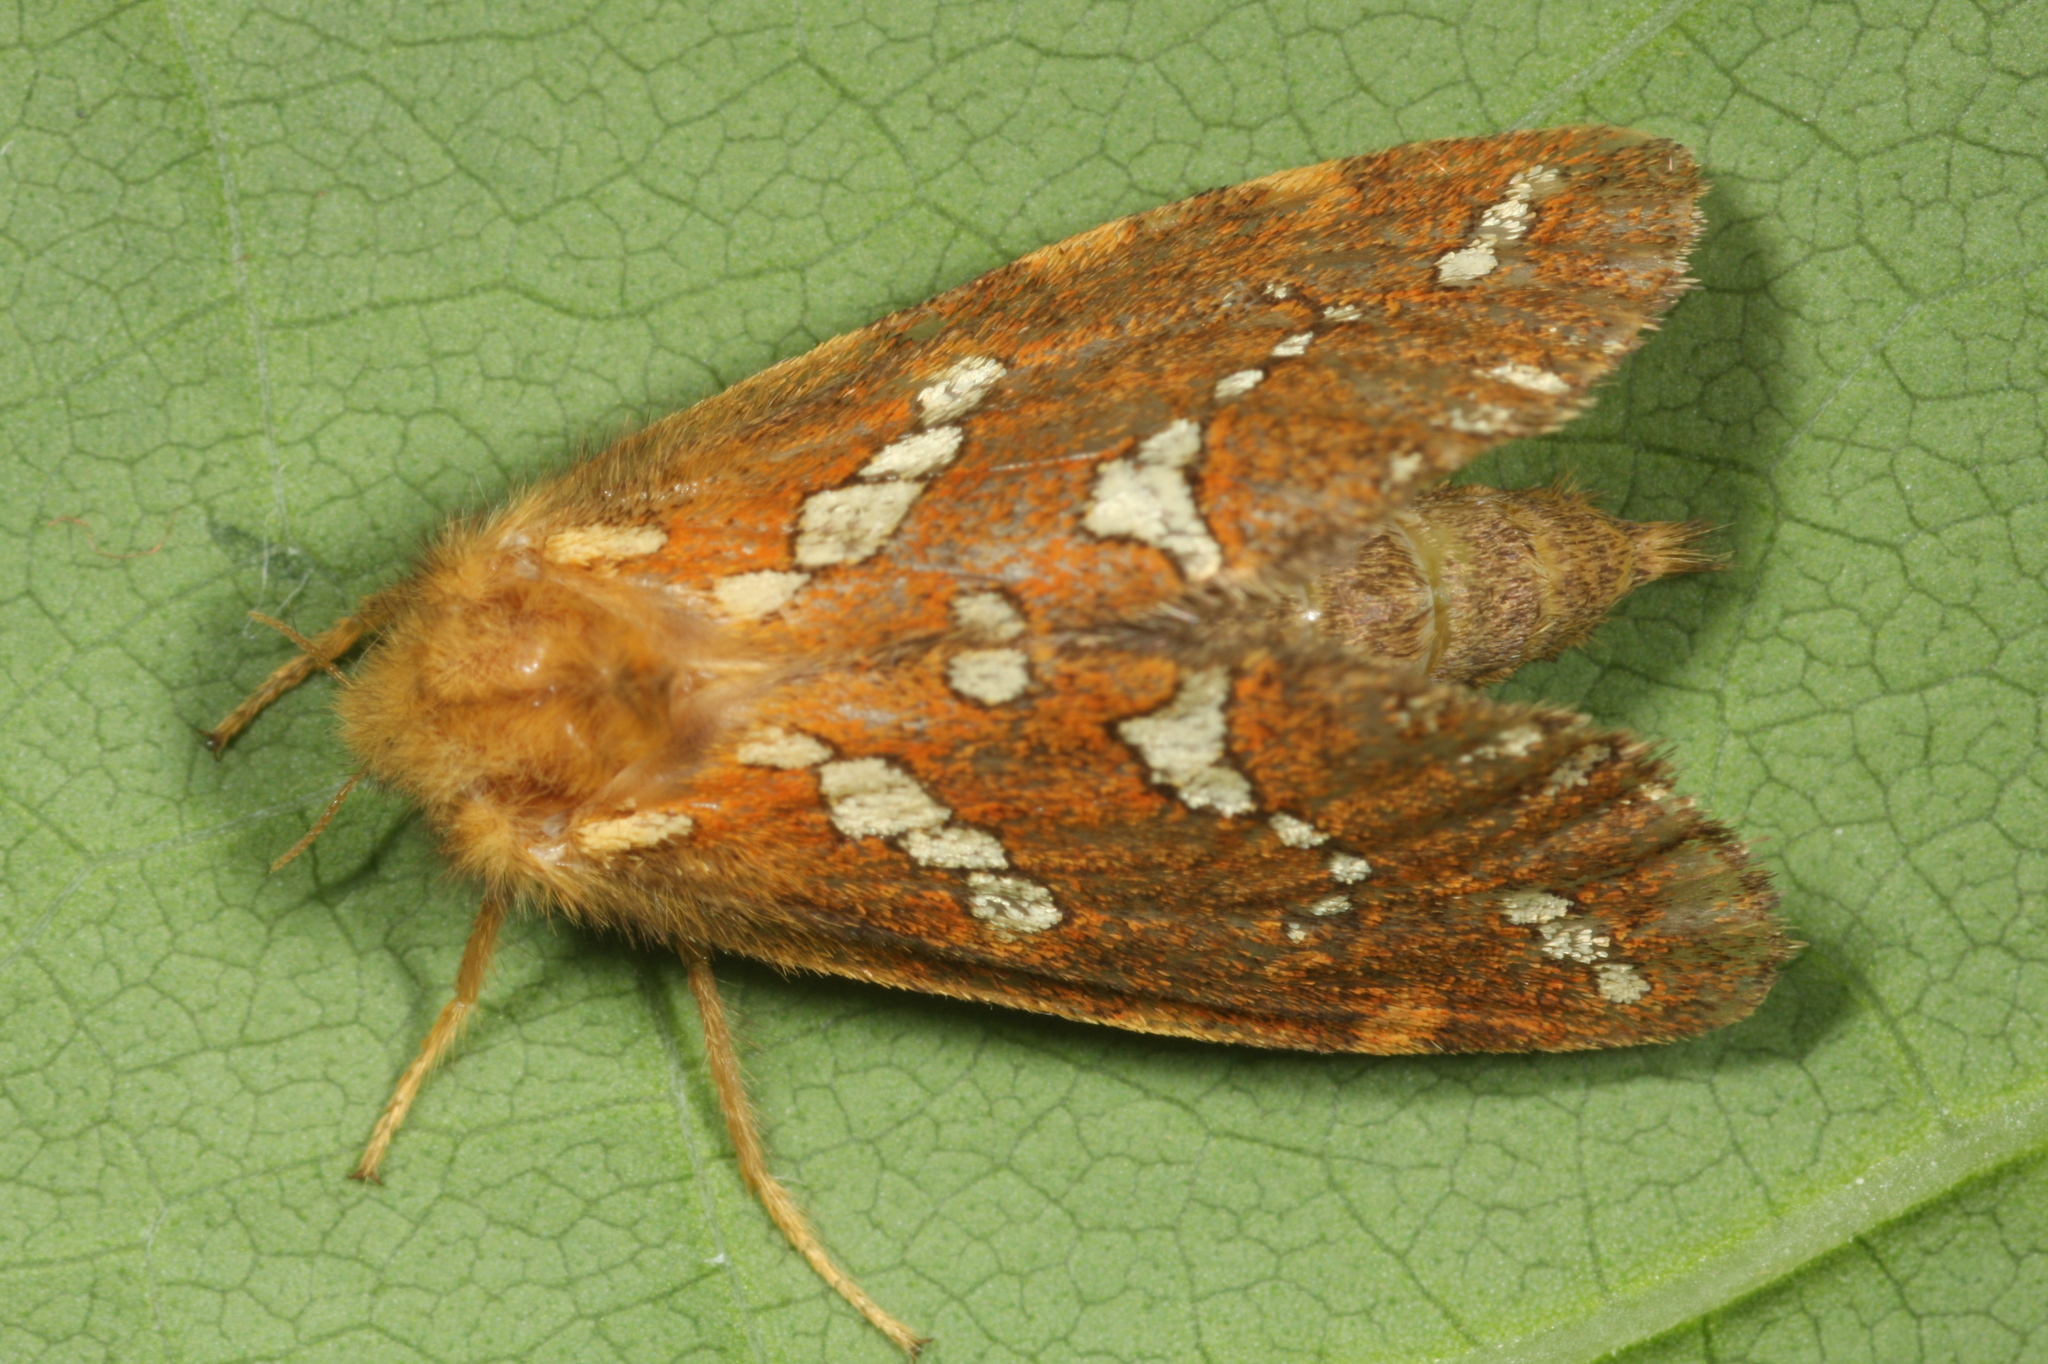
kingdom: Animalia
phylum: Arthropoda
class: Insecta
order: Lepidoptera
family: Hepialidae
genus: Phymatopus
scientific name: Phymatopus hecta
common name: Gold swift
